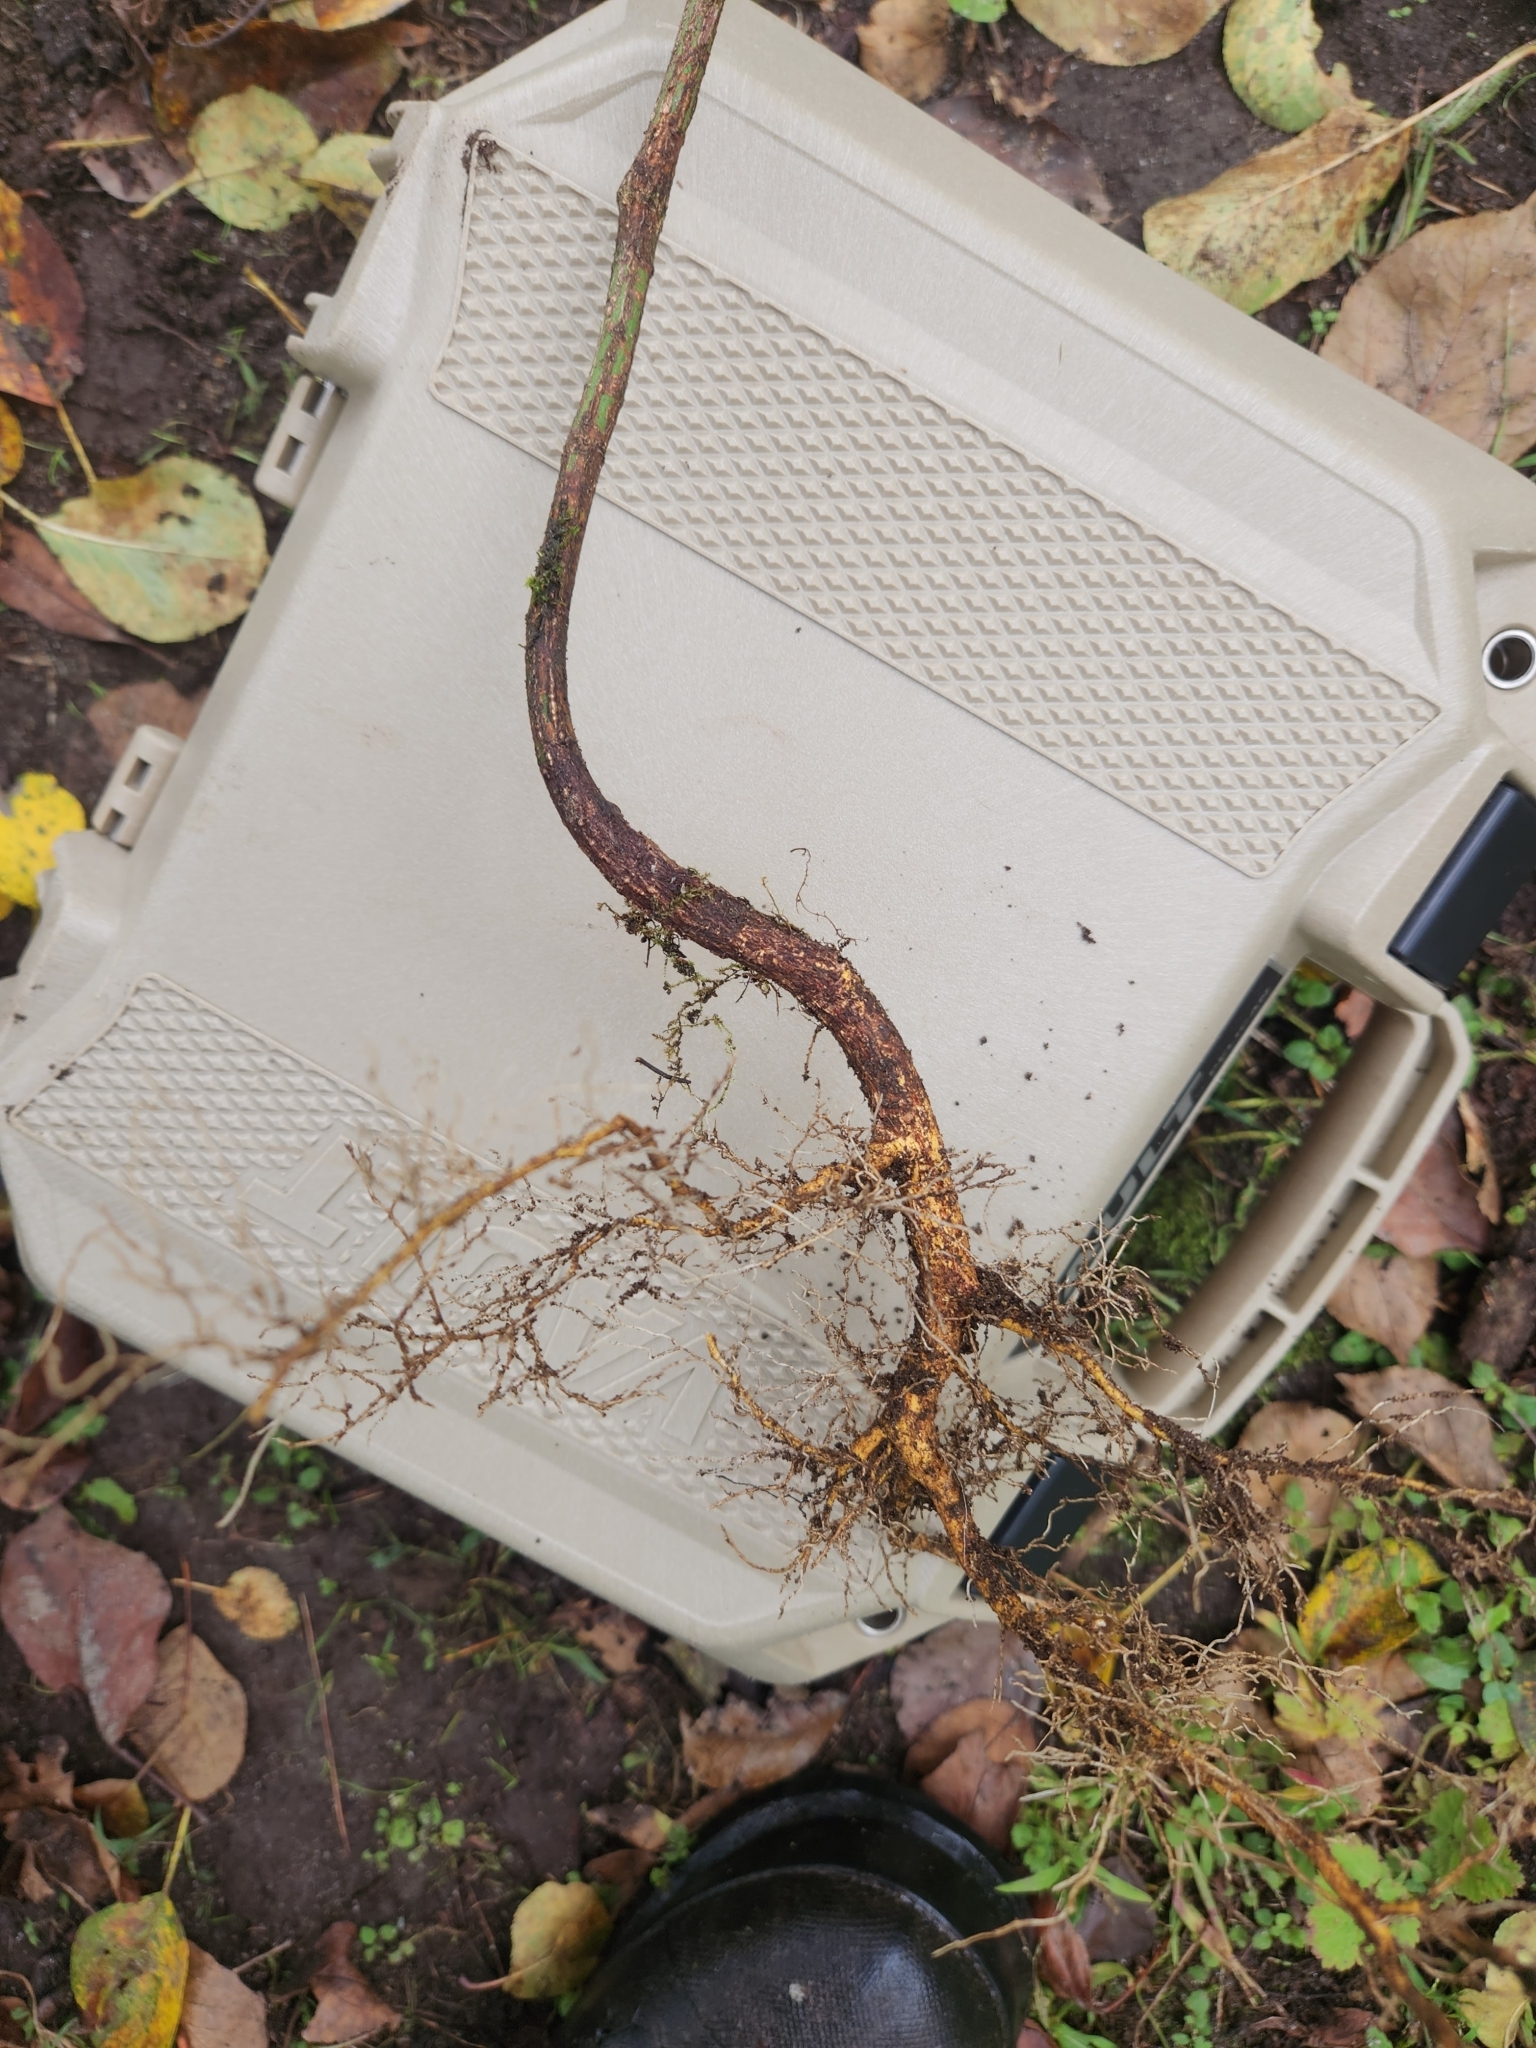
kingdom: Plantae
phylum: Tracheophyta
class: Magnoliopsida
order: Celastrales
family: Celastraceae
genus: Euonymus
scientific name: Euonymus alatus
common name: Winged euonymus
